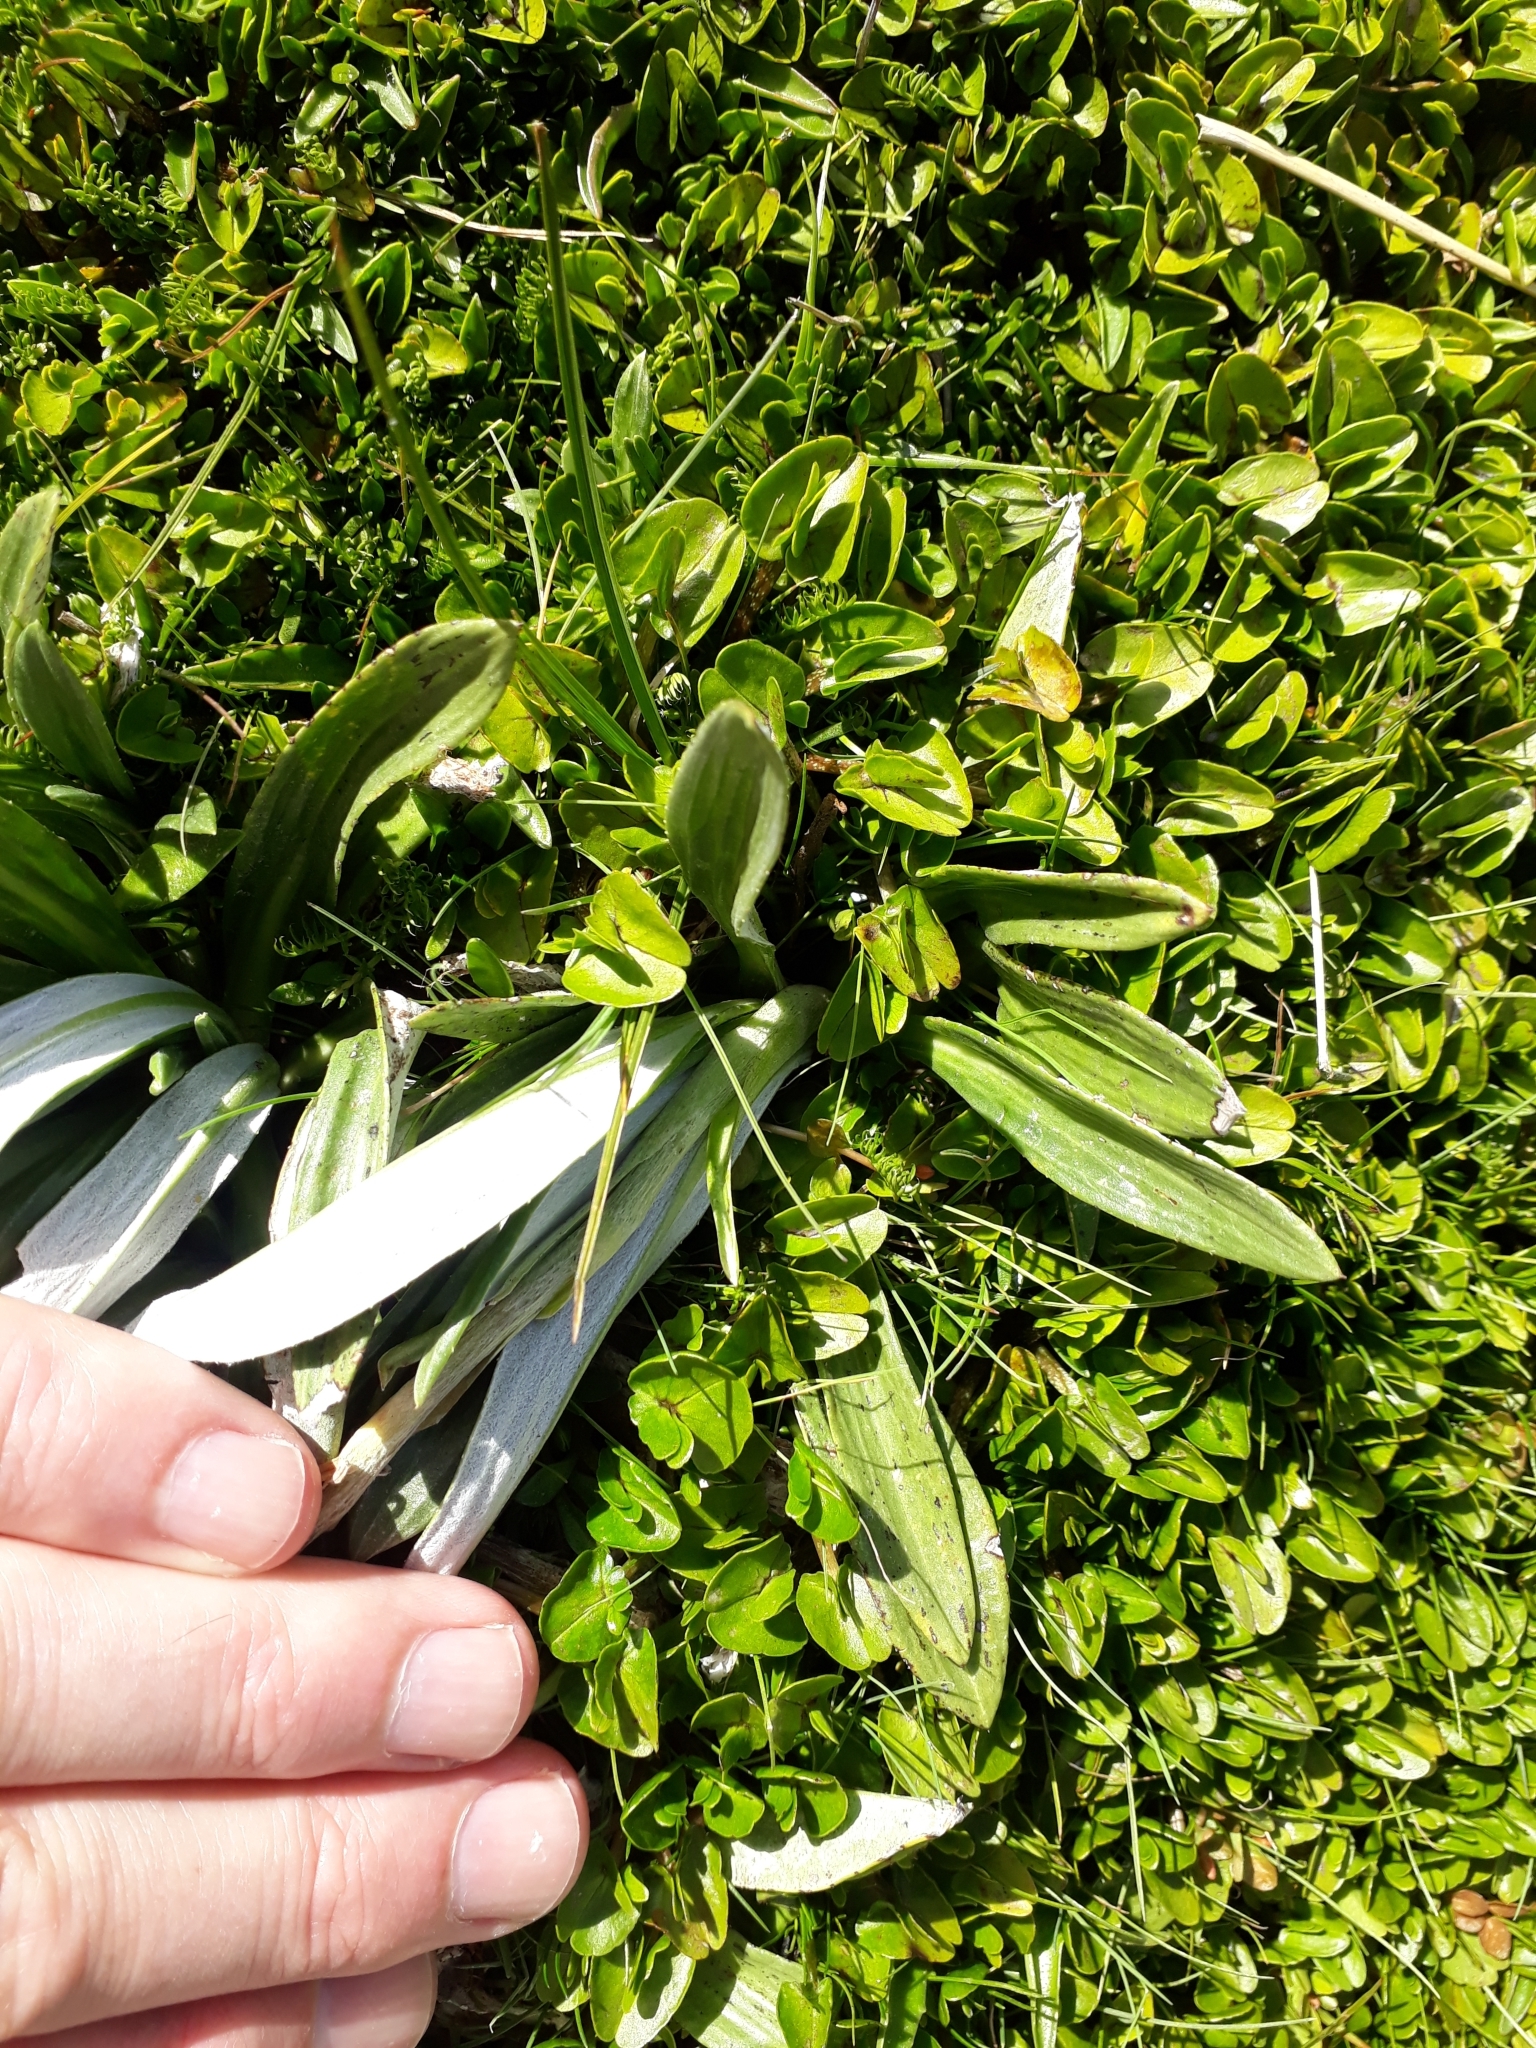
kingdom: Plantae
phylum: Tracheophyta
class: Magnoliopsida
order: Asterales
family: Asteraceae
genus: Celmisia
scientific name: Celmisia haastii
